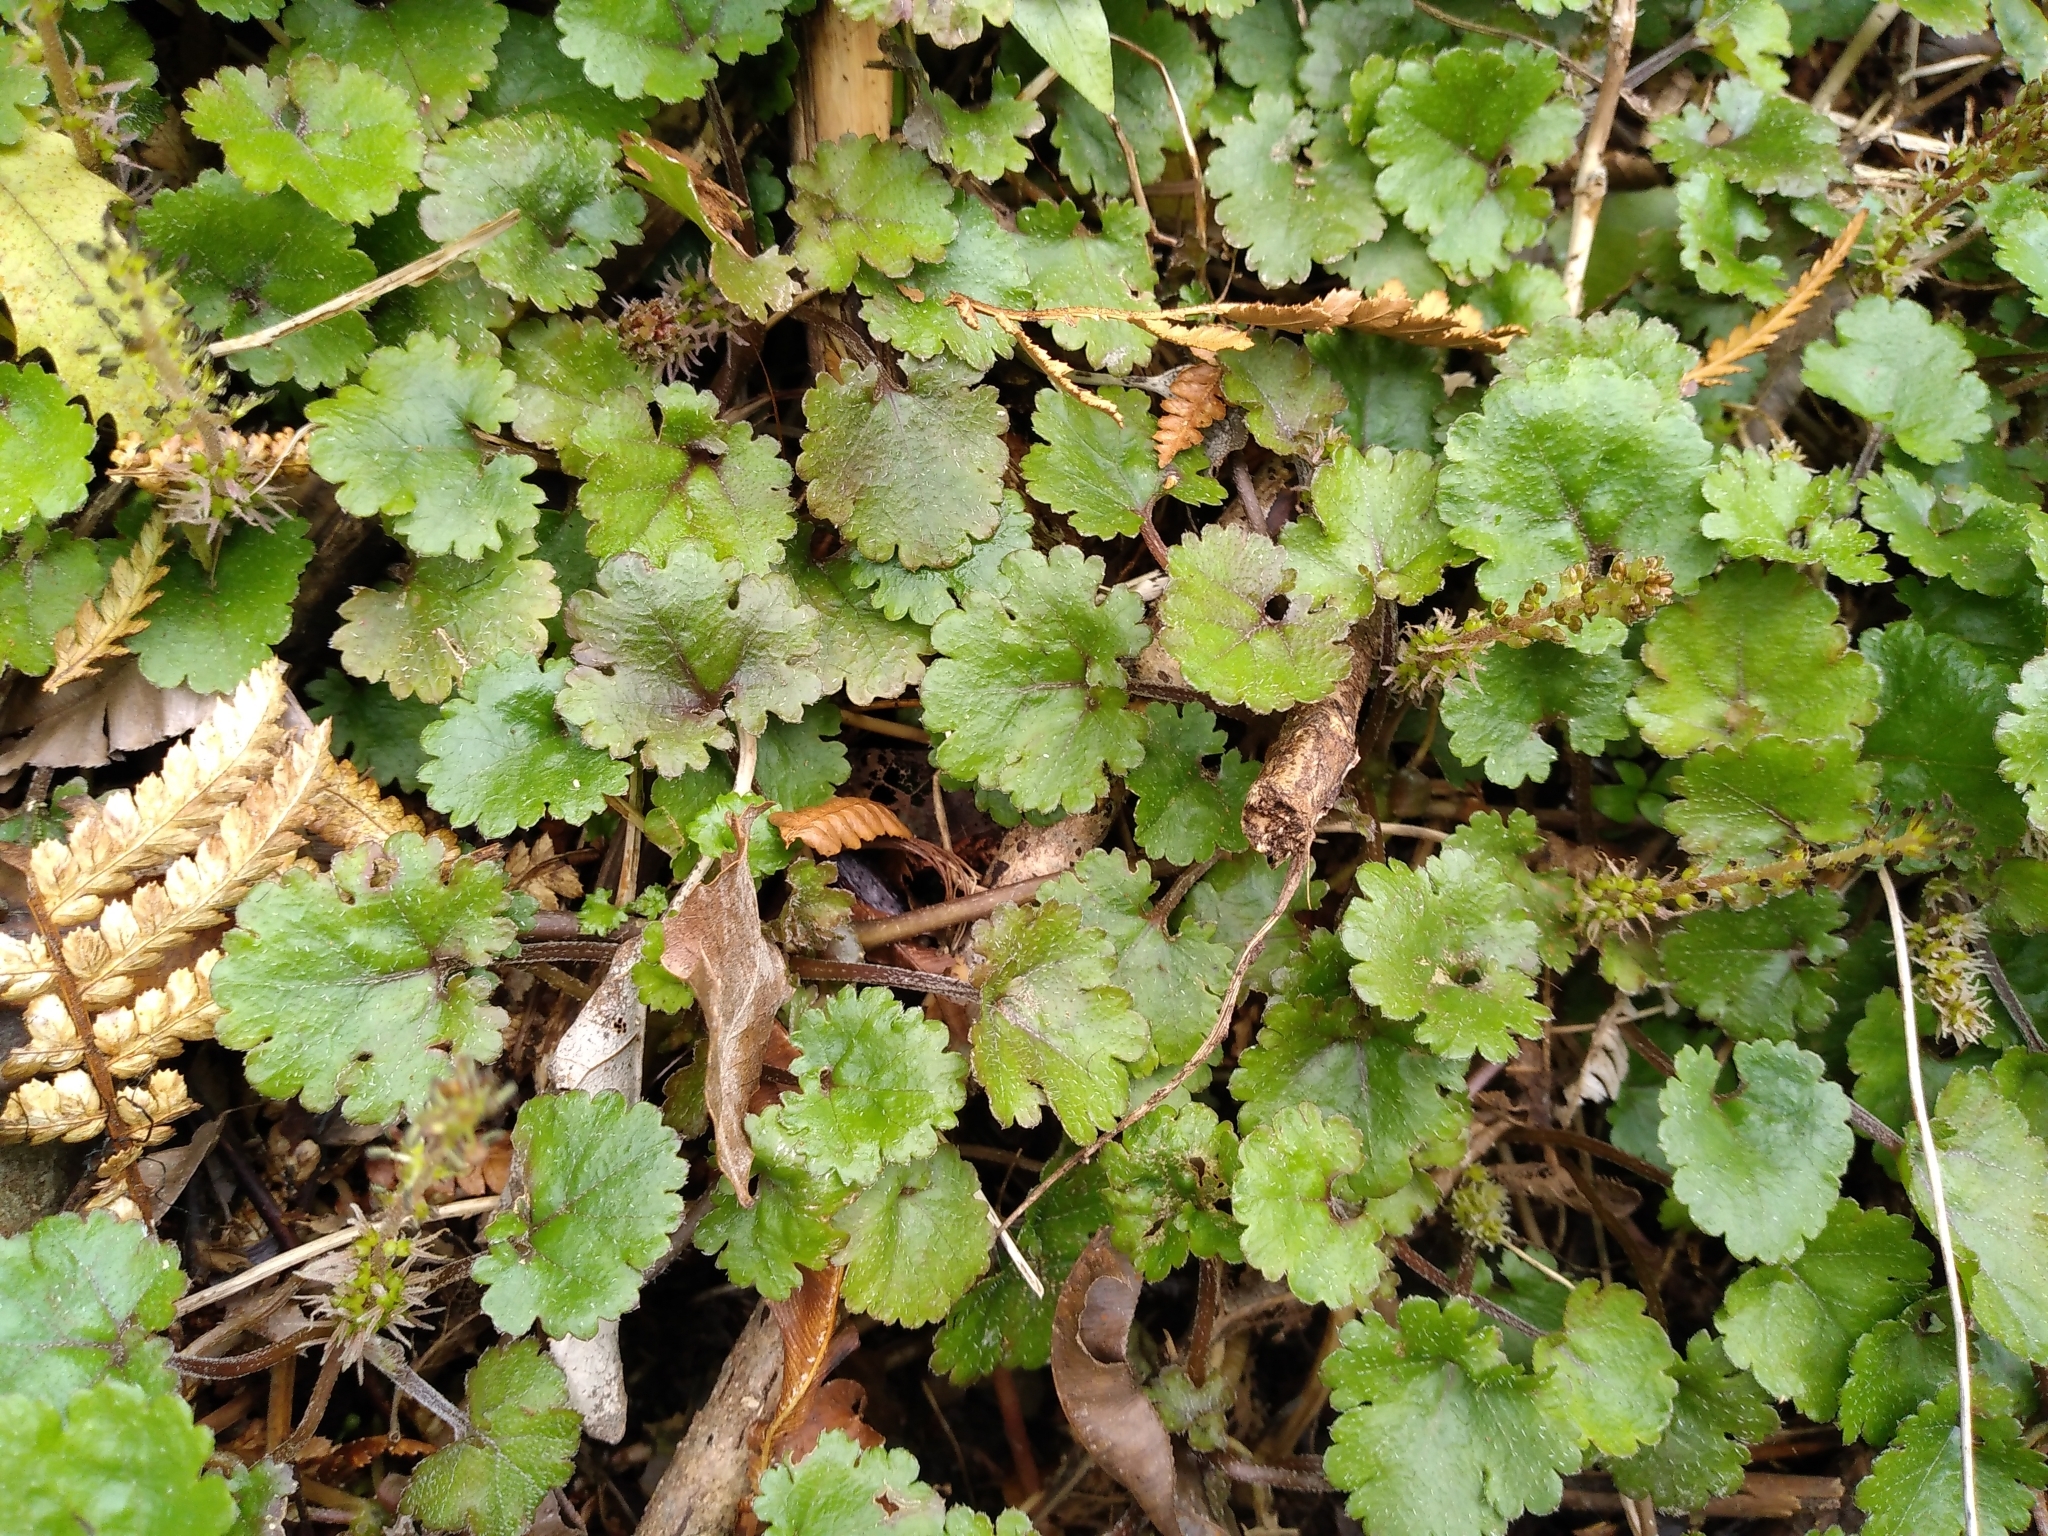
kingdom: Plantae
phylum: Tracheophyta
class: Magnoliopsida
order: Gunnerales
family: Gunneraceae
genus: Gunnera
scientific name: Gunnera monoica
